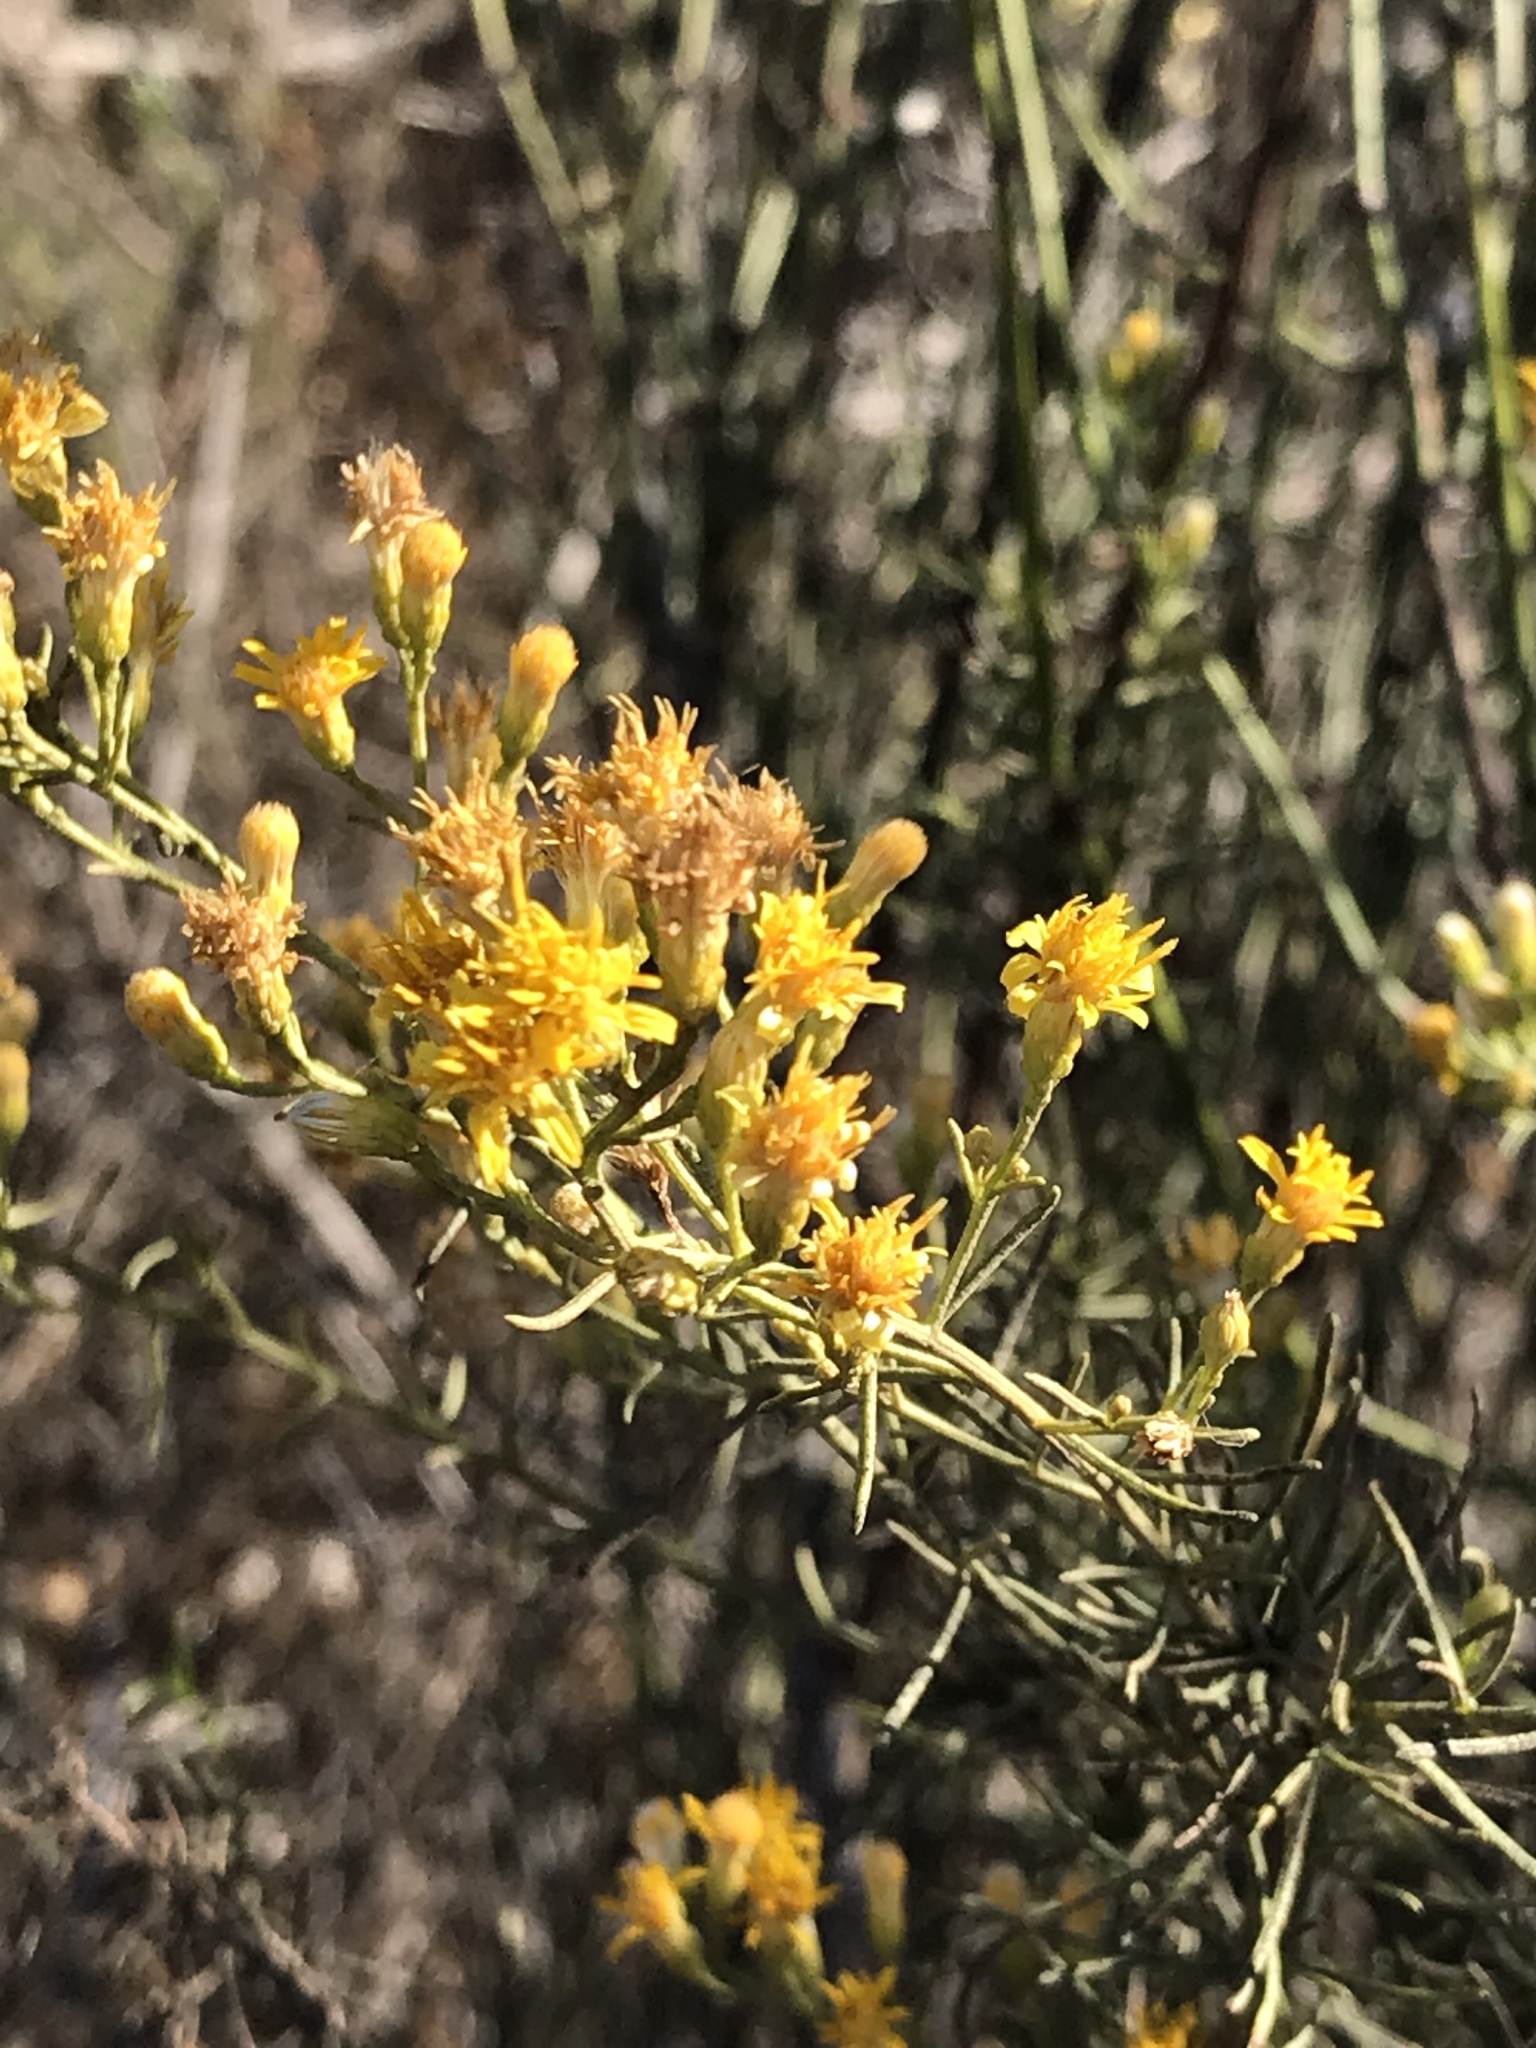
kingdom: Plantae
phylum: Tracheophyta
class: Magnoliopsida
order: Asterales
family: Asteraceae
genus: Ericameria
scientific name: Ericameria palmeri
